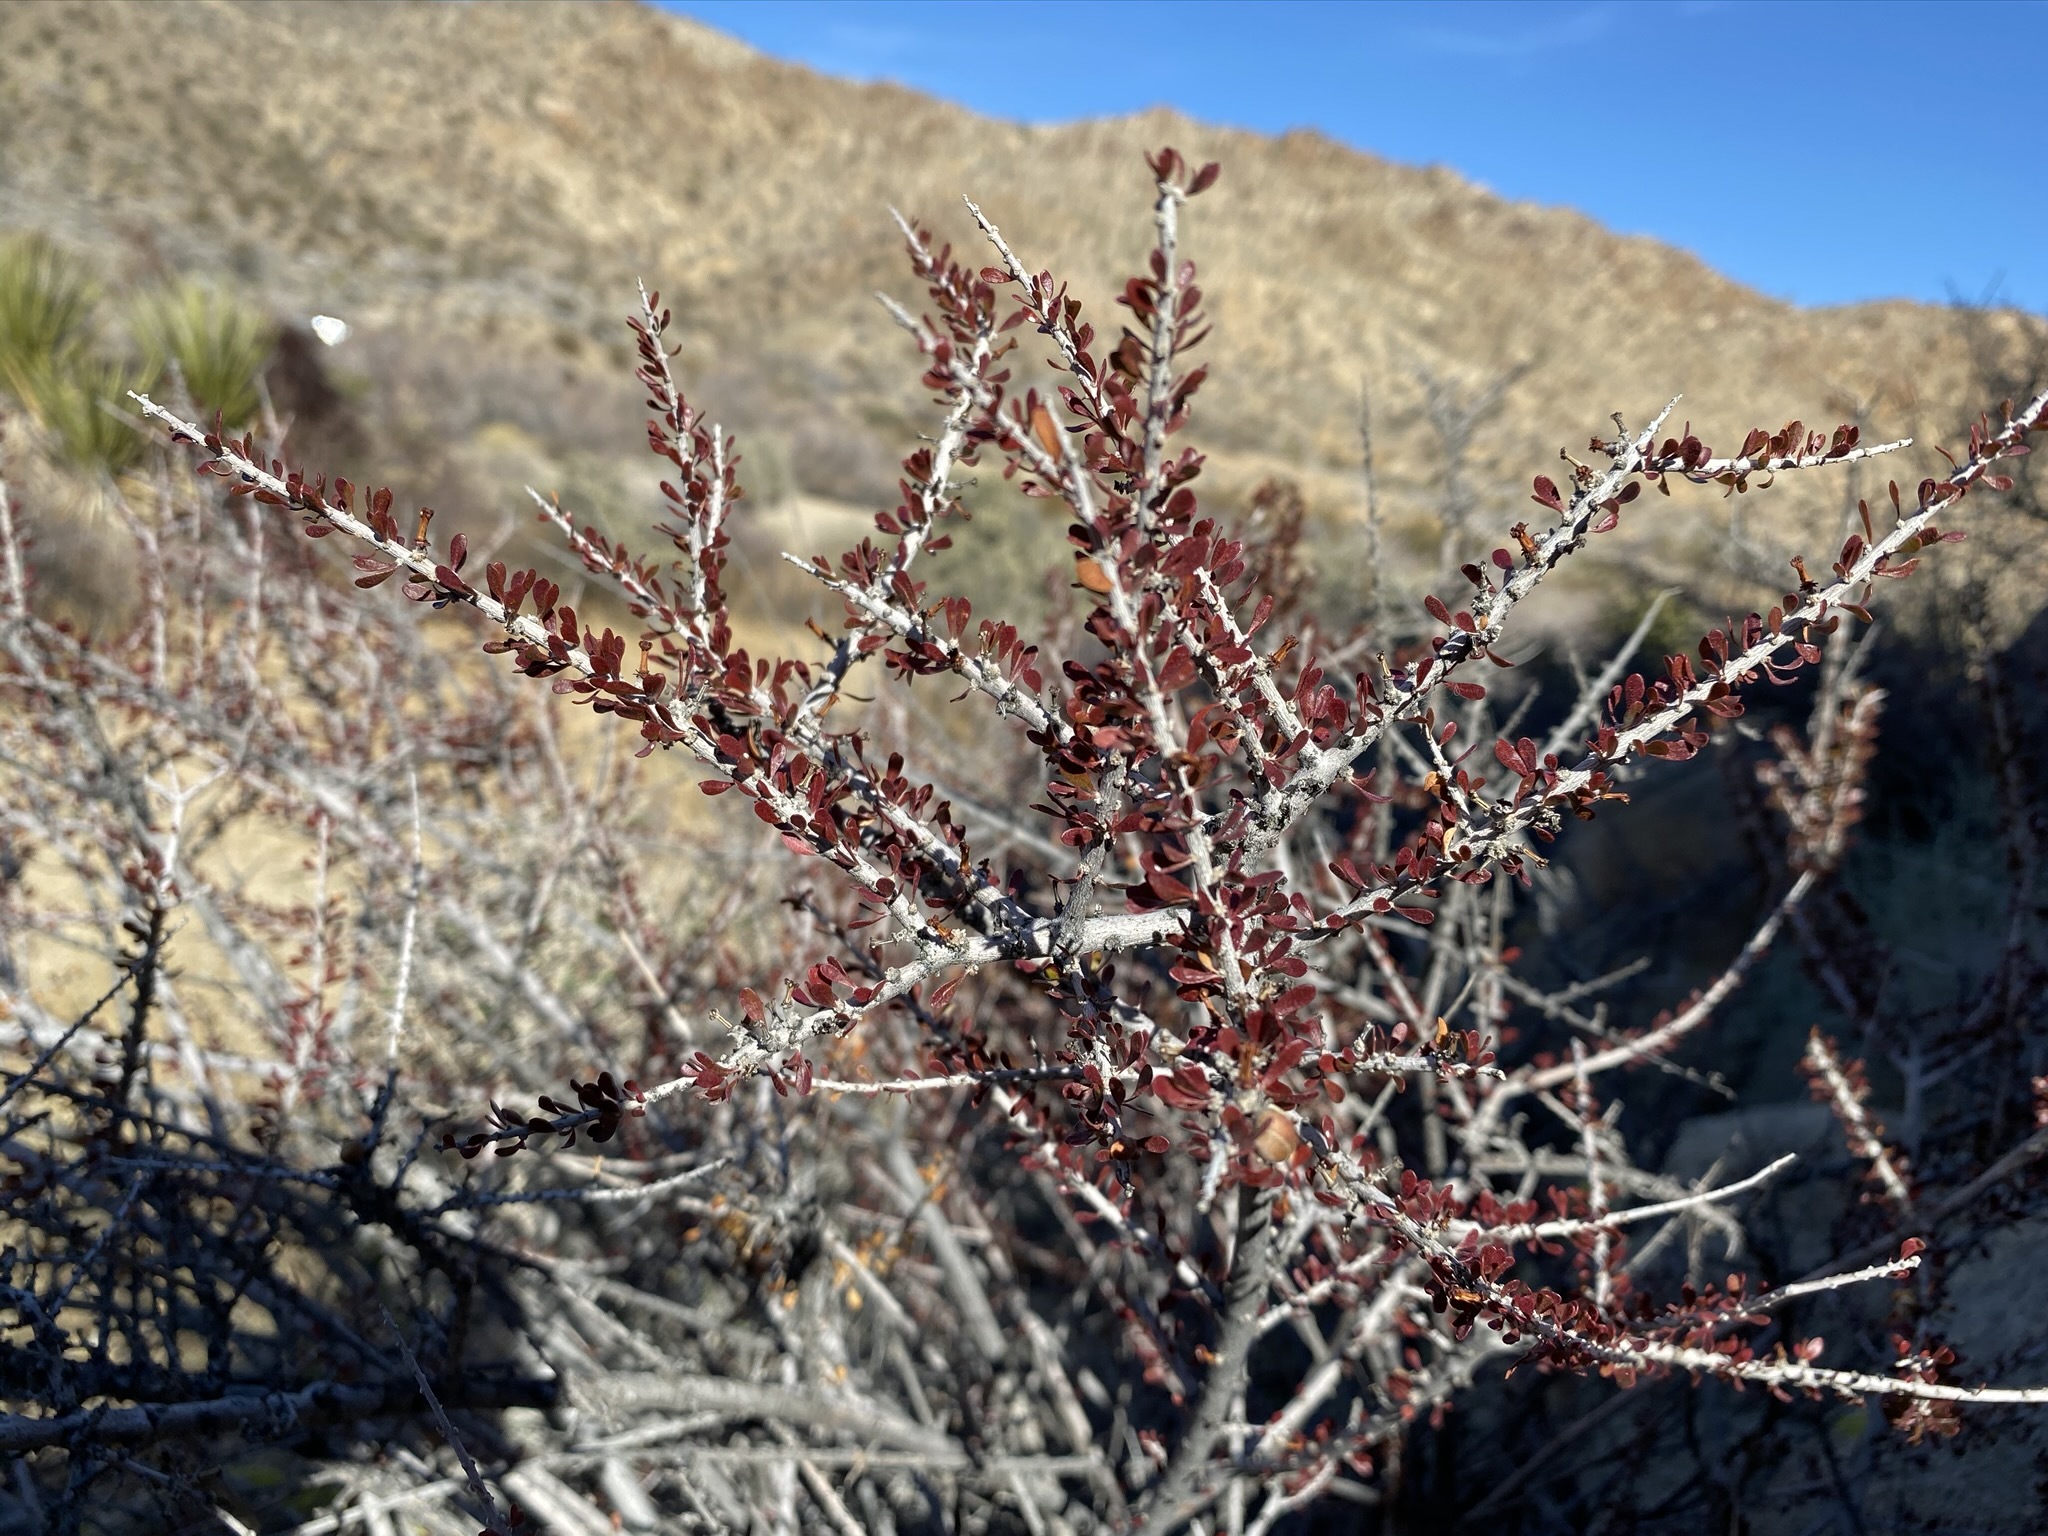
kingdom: Plantae
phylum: Tracheophyta
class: Magnoliopsida
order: Malpighiales
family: Picrodendraceae
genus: Tetracoccus
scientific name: Tetracoccus hallii
